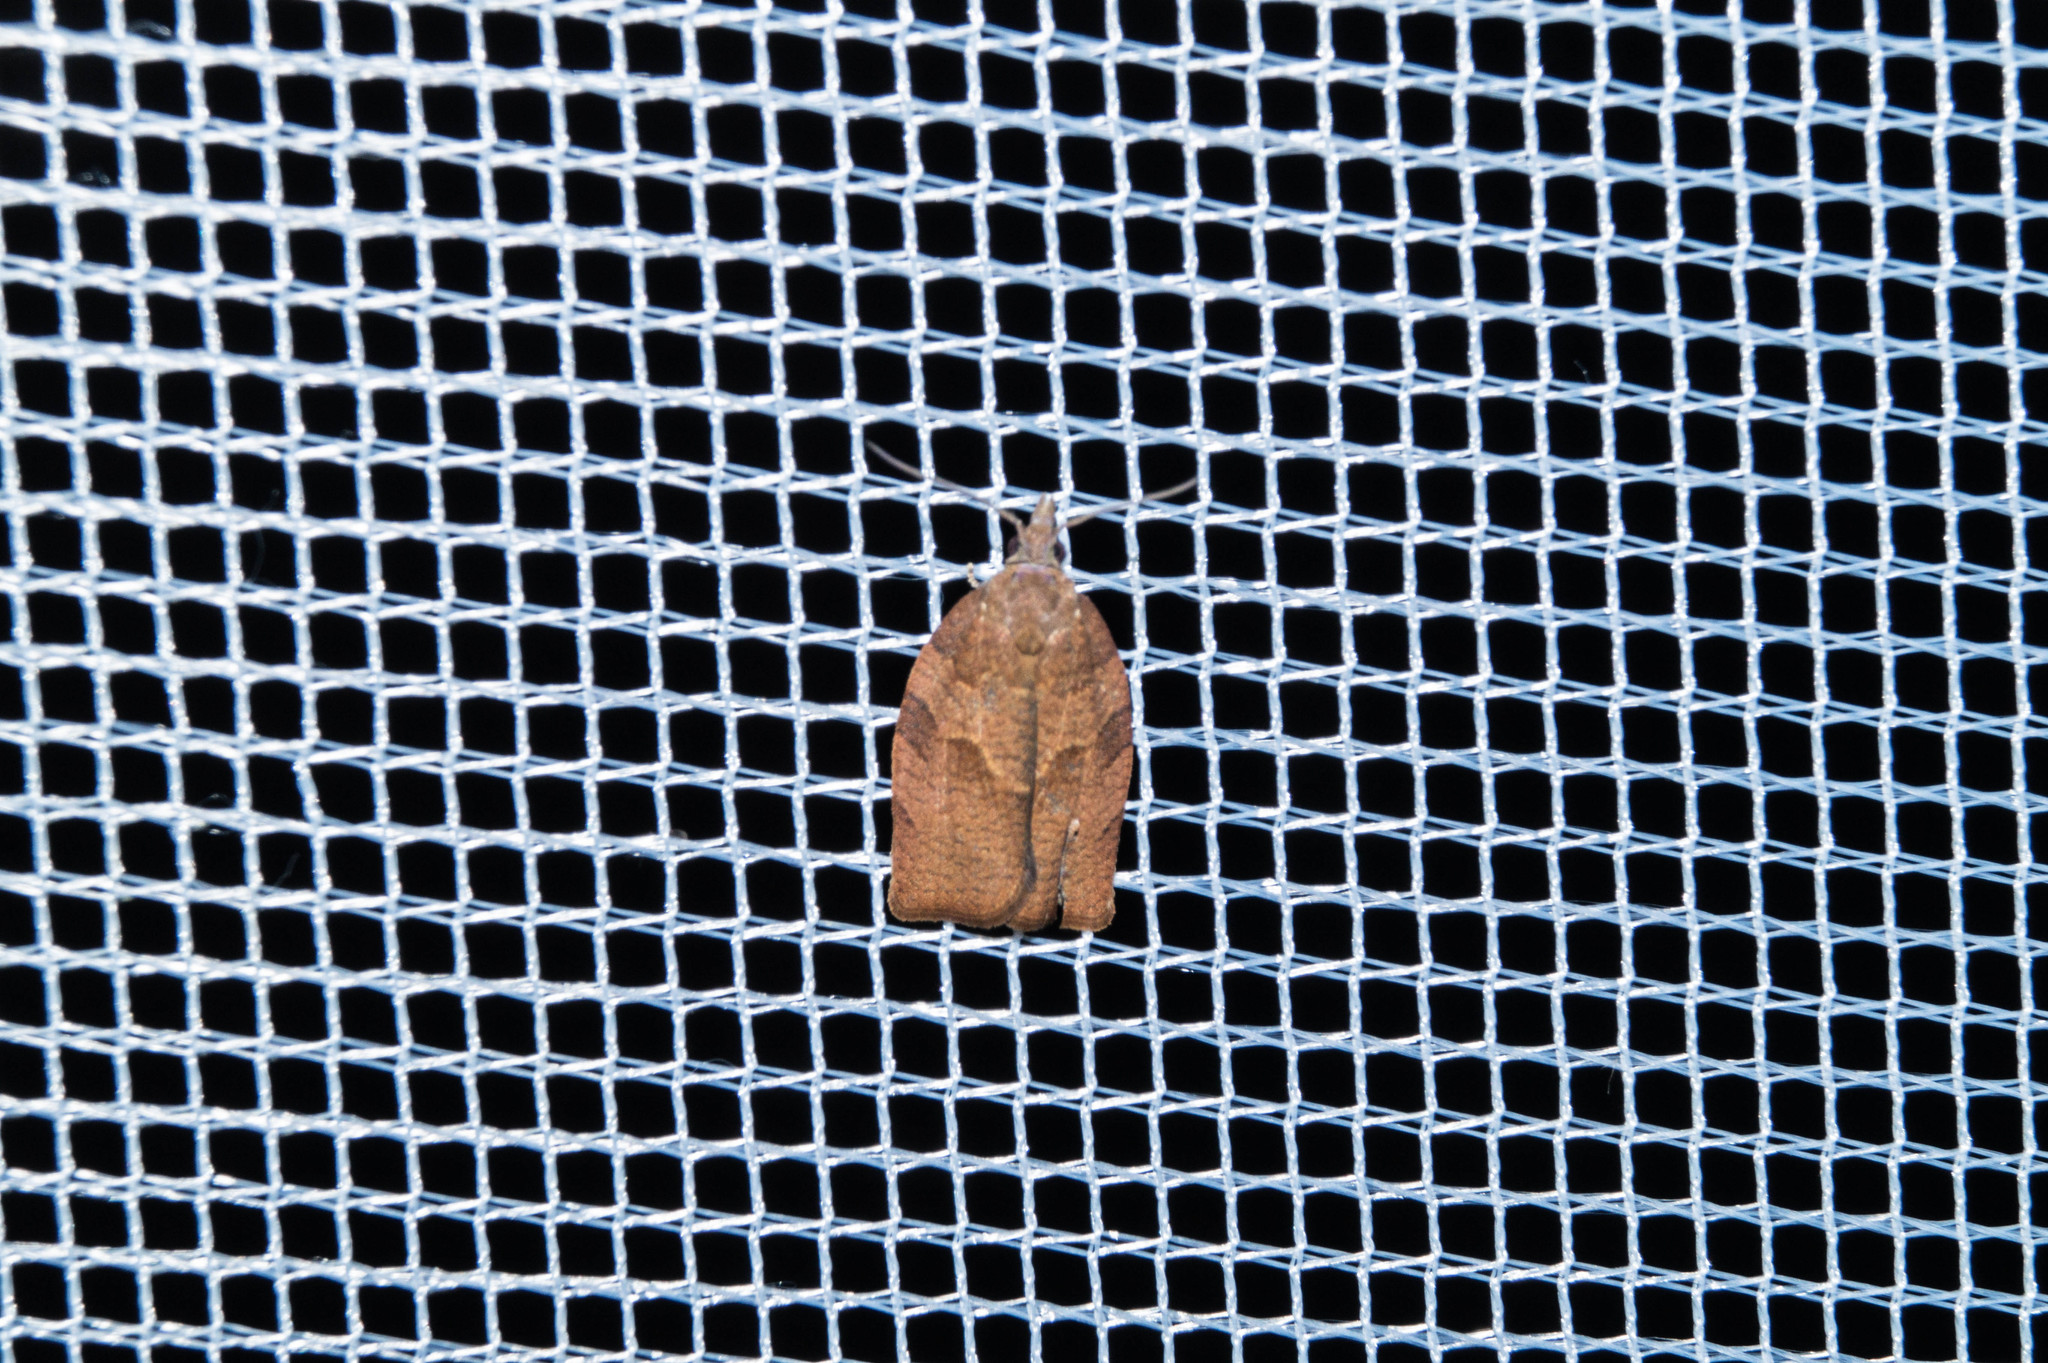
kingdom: Animalia
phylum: Arthropoda
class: Insecta
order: Lepidoptera
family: Tortricidae
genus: Pandemis
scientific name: Pandemis heparana
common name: Dark fruit-tree tortrix
